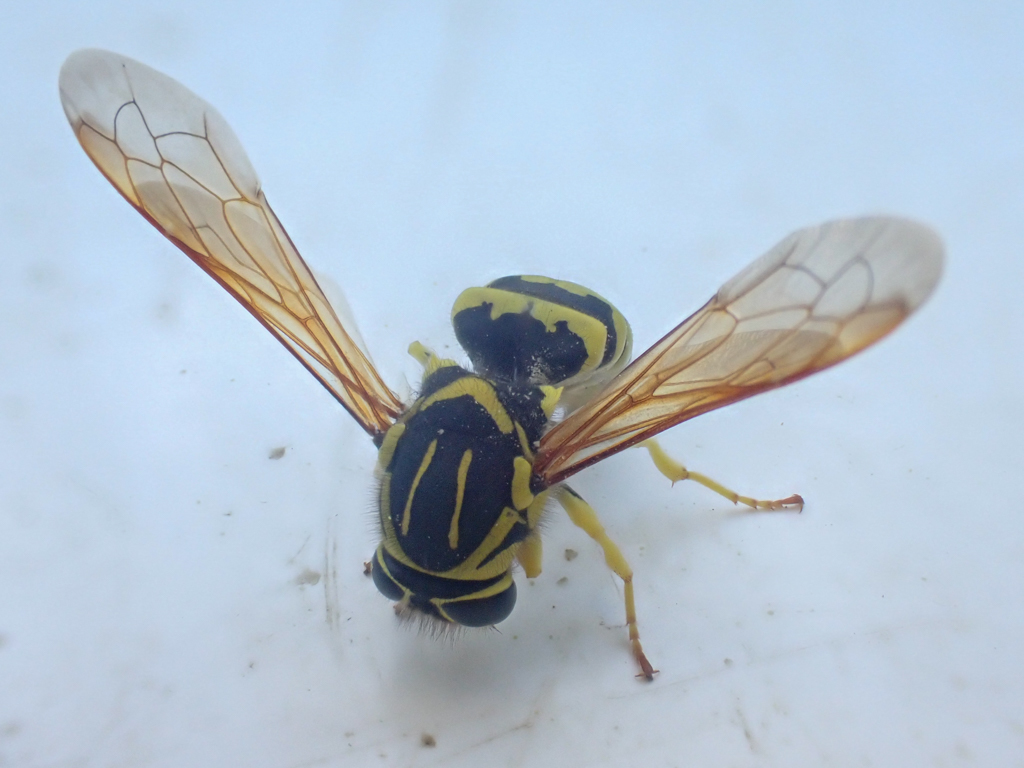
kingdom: Animalia
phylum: Arthropoda
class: Insecta
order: Hymenoptera
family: Masaridae
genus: Pseudomasaris
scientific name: Pseudomasaris coquilletti
